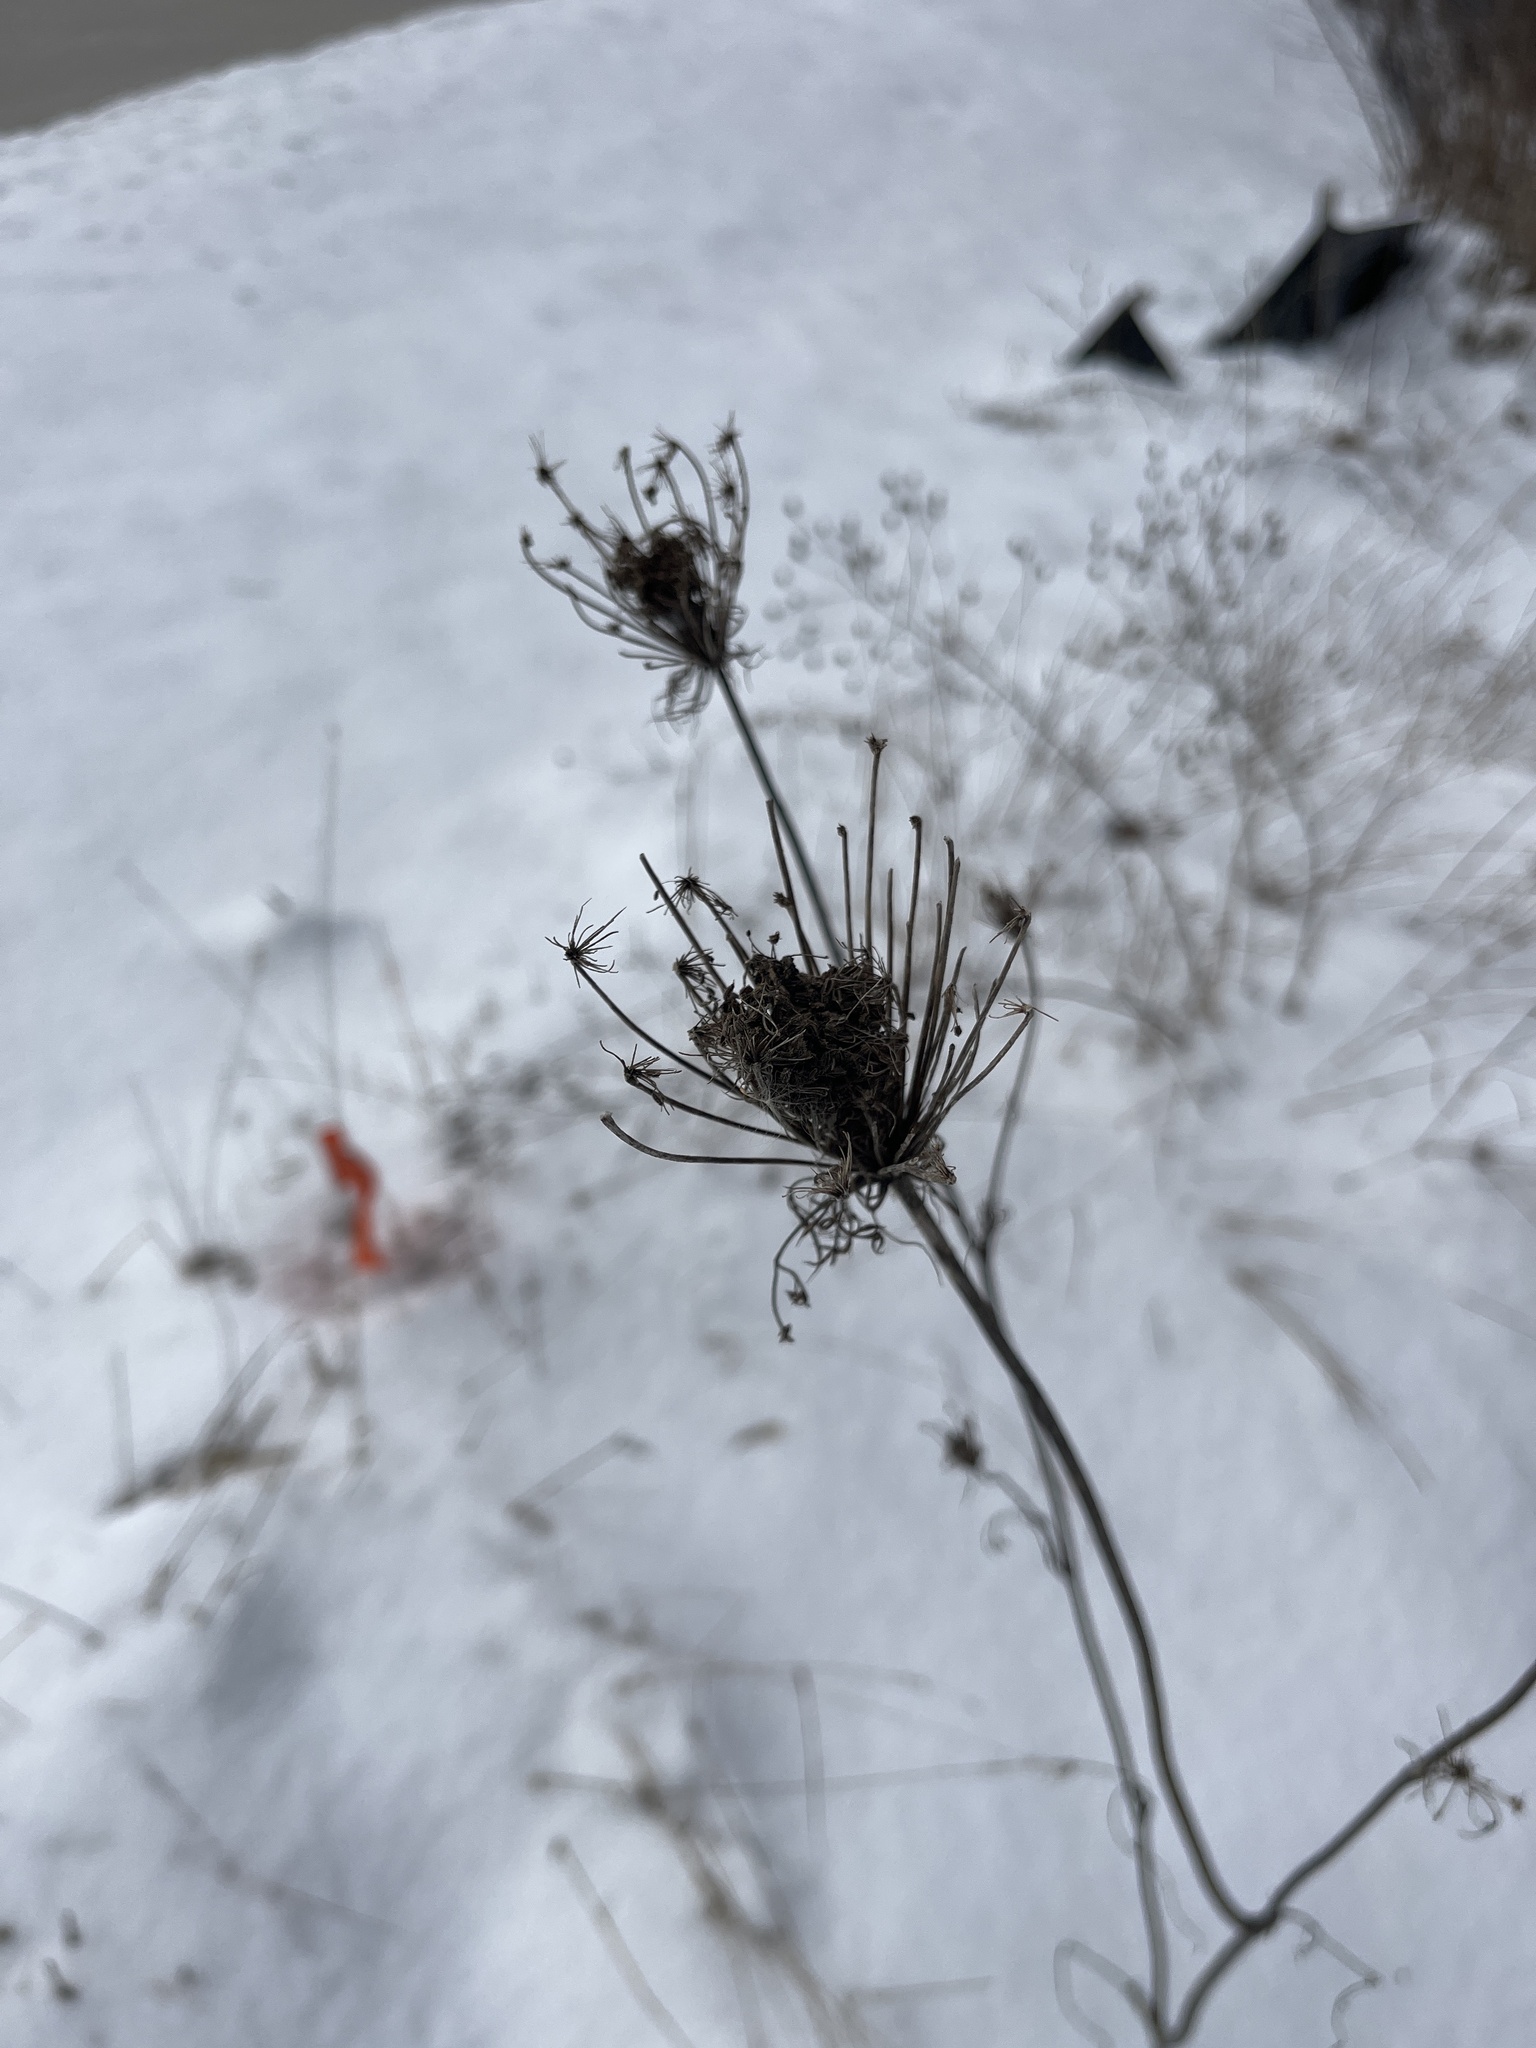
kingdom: Plantae
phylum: Tracheophyta
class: Magnoliopsida
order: Apiales
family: Apiaceae
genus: Daucus
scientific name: Daucus carota
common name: Wild carrot
